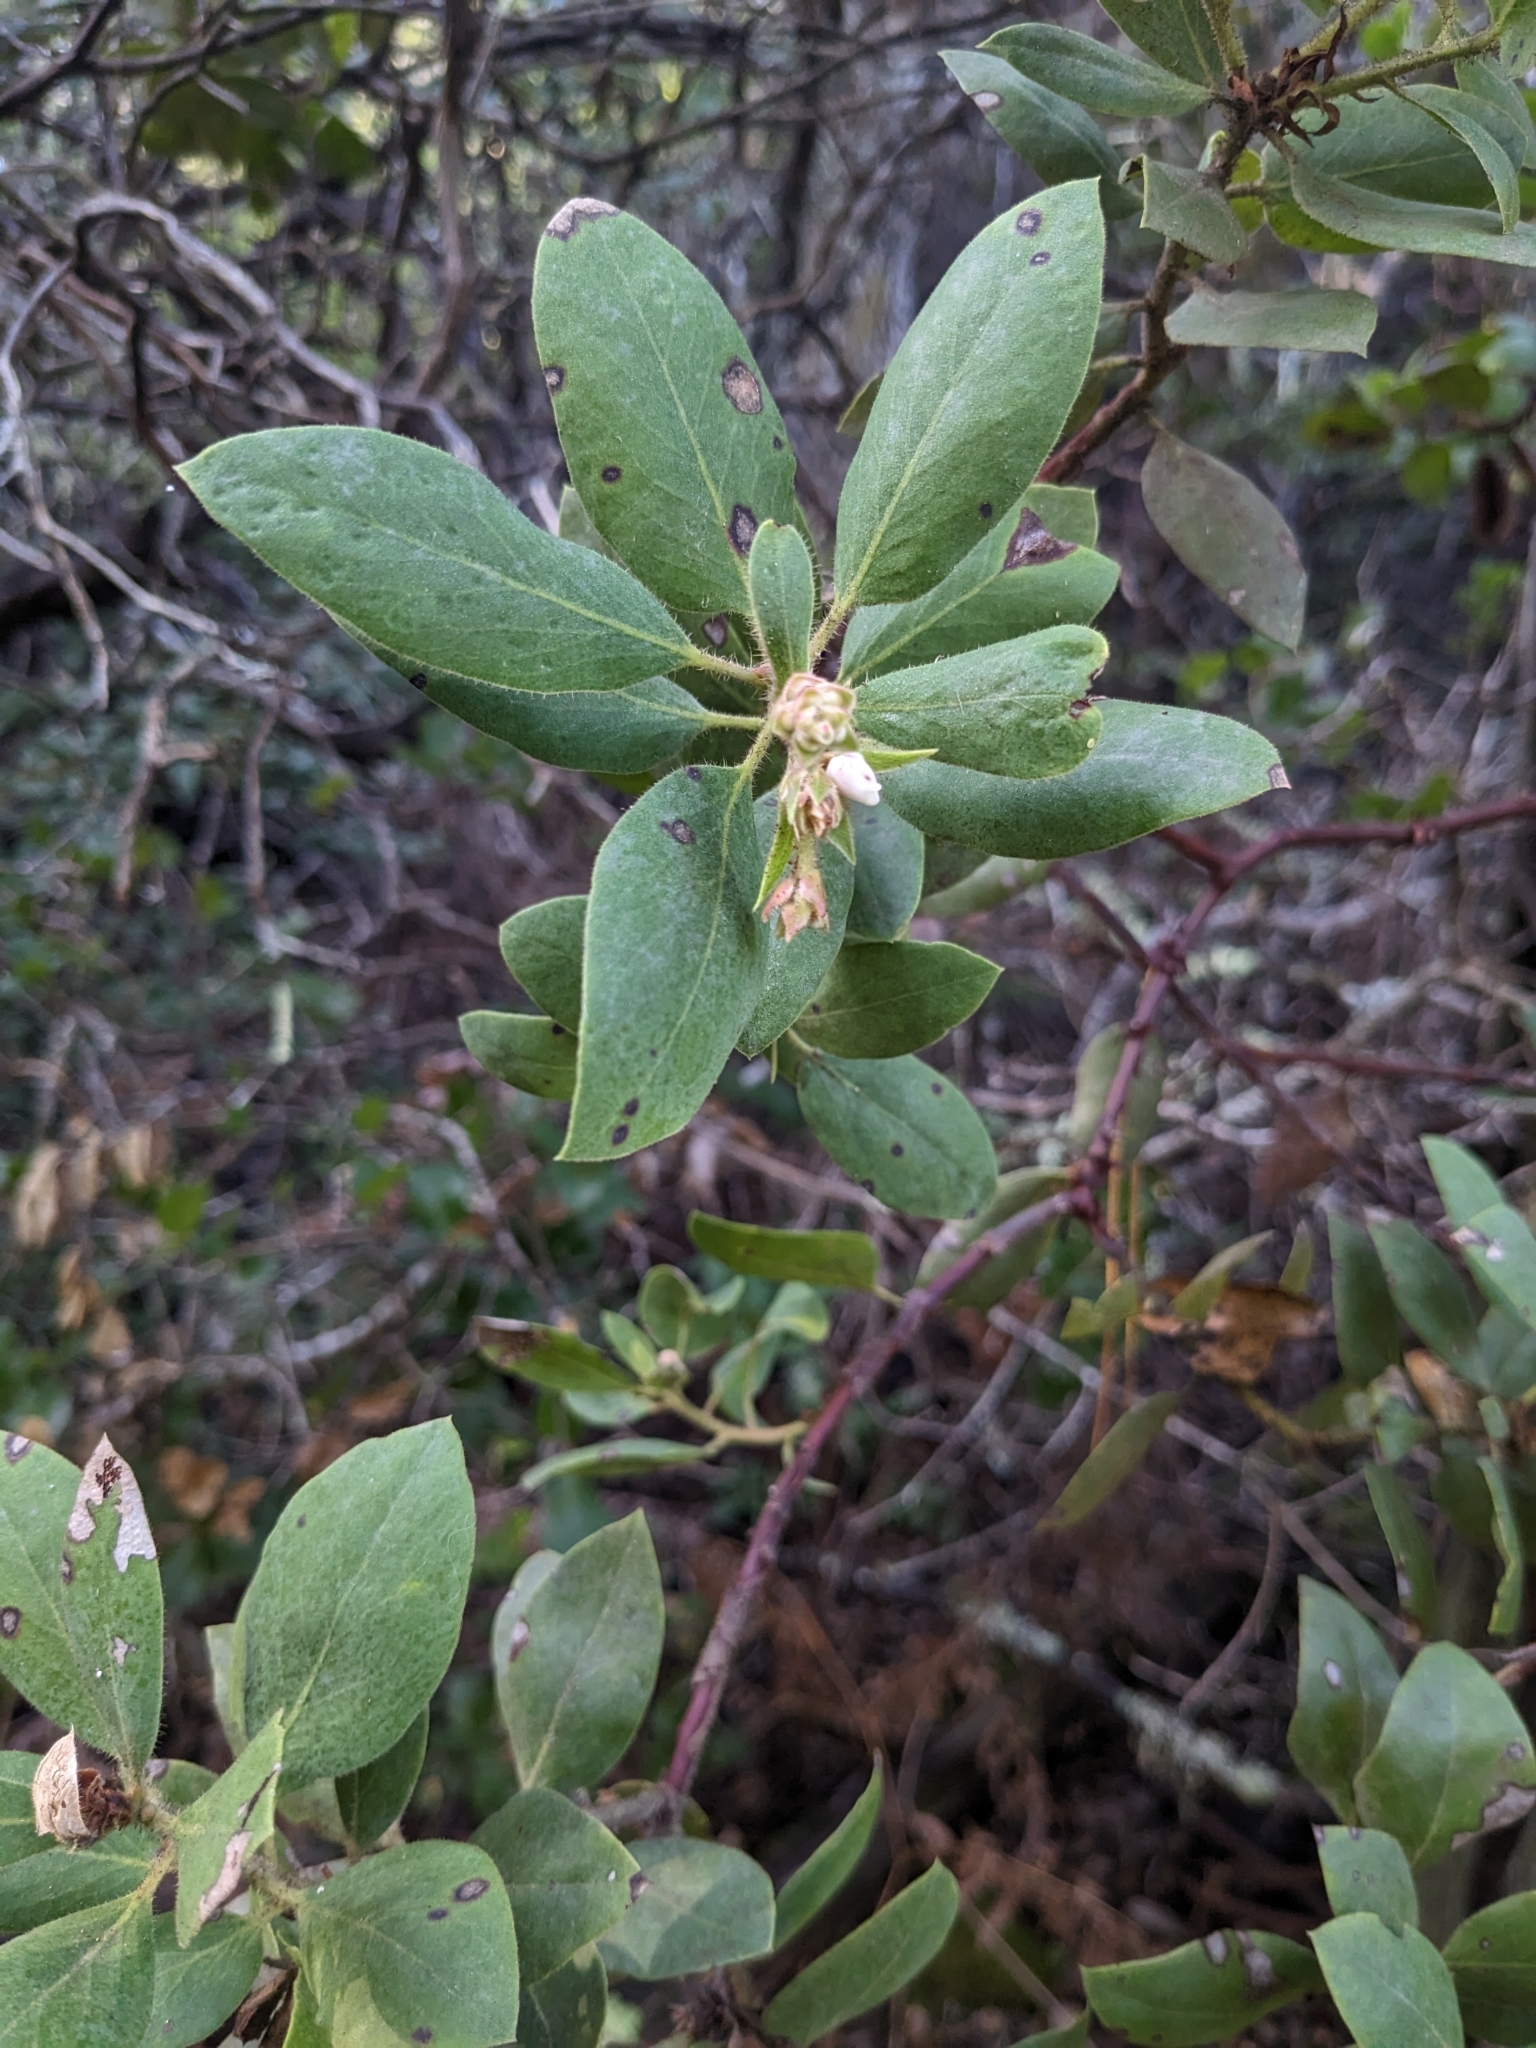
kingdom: Plantae
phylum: Tracheophyta
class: Magnoliopsida
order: Ericales
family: Ericaceae
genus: Arctostaphylos
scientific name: Arctostaphylos glandulosa
